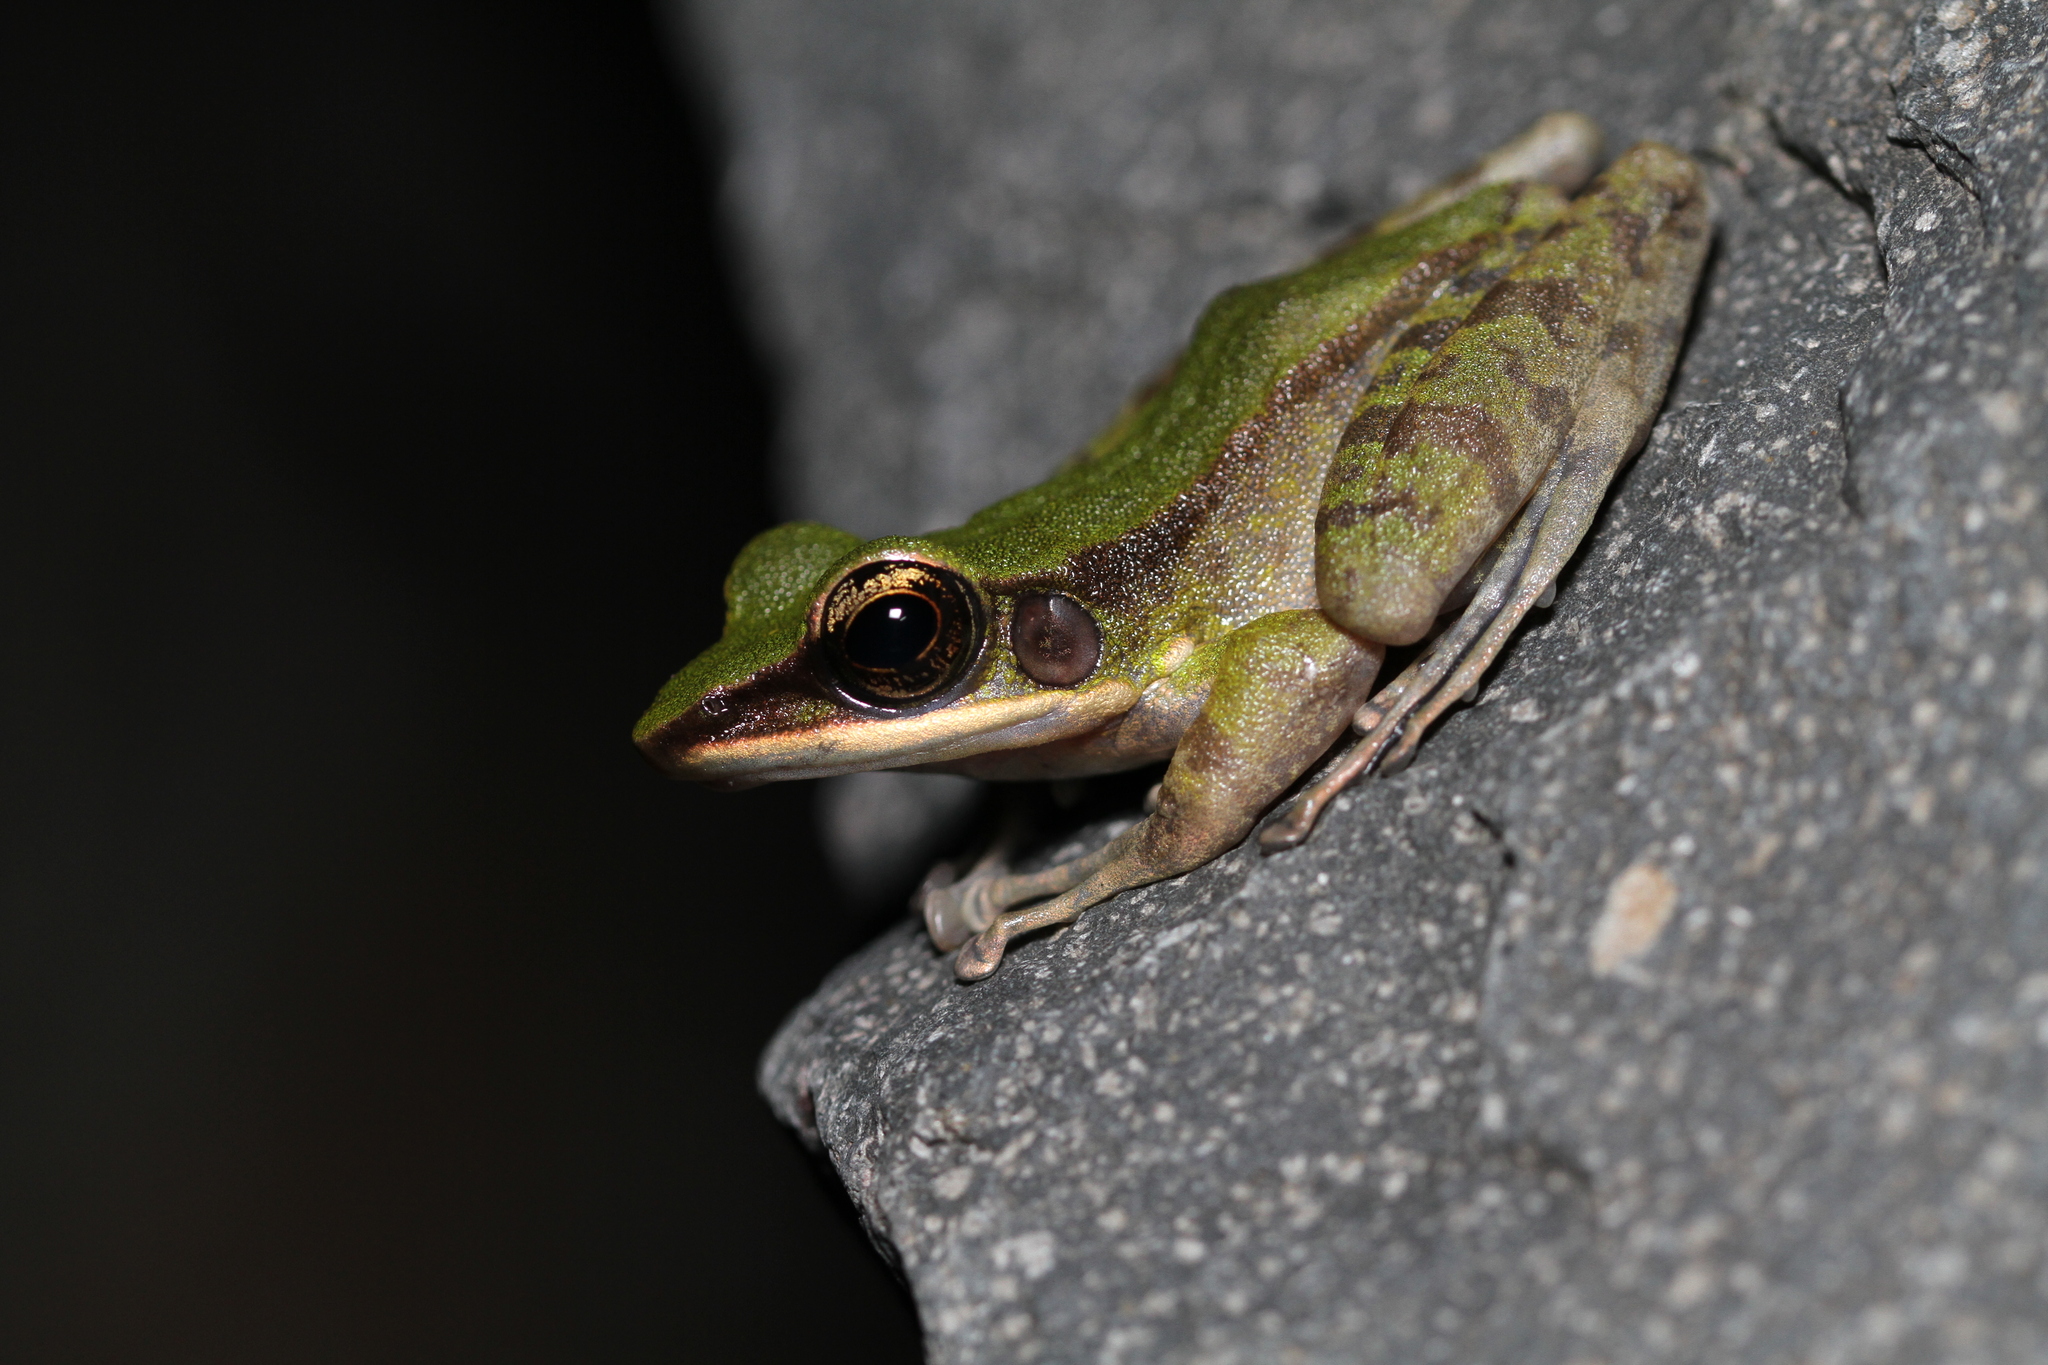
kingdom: Animalia
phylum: Chordata
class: Amphibia
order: Anura
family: Ranidae
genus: Odorrana
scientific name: Odorrana hosii
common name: Green tree frog
